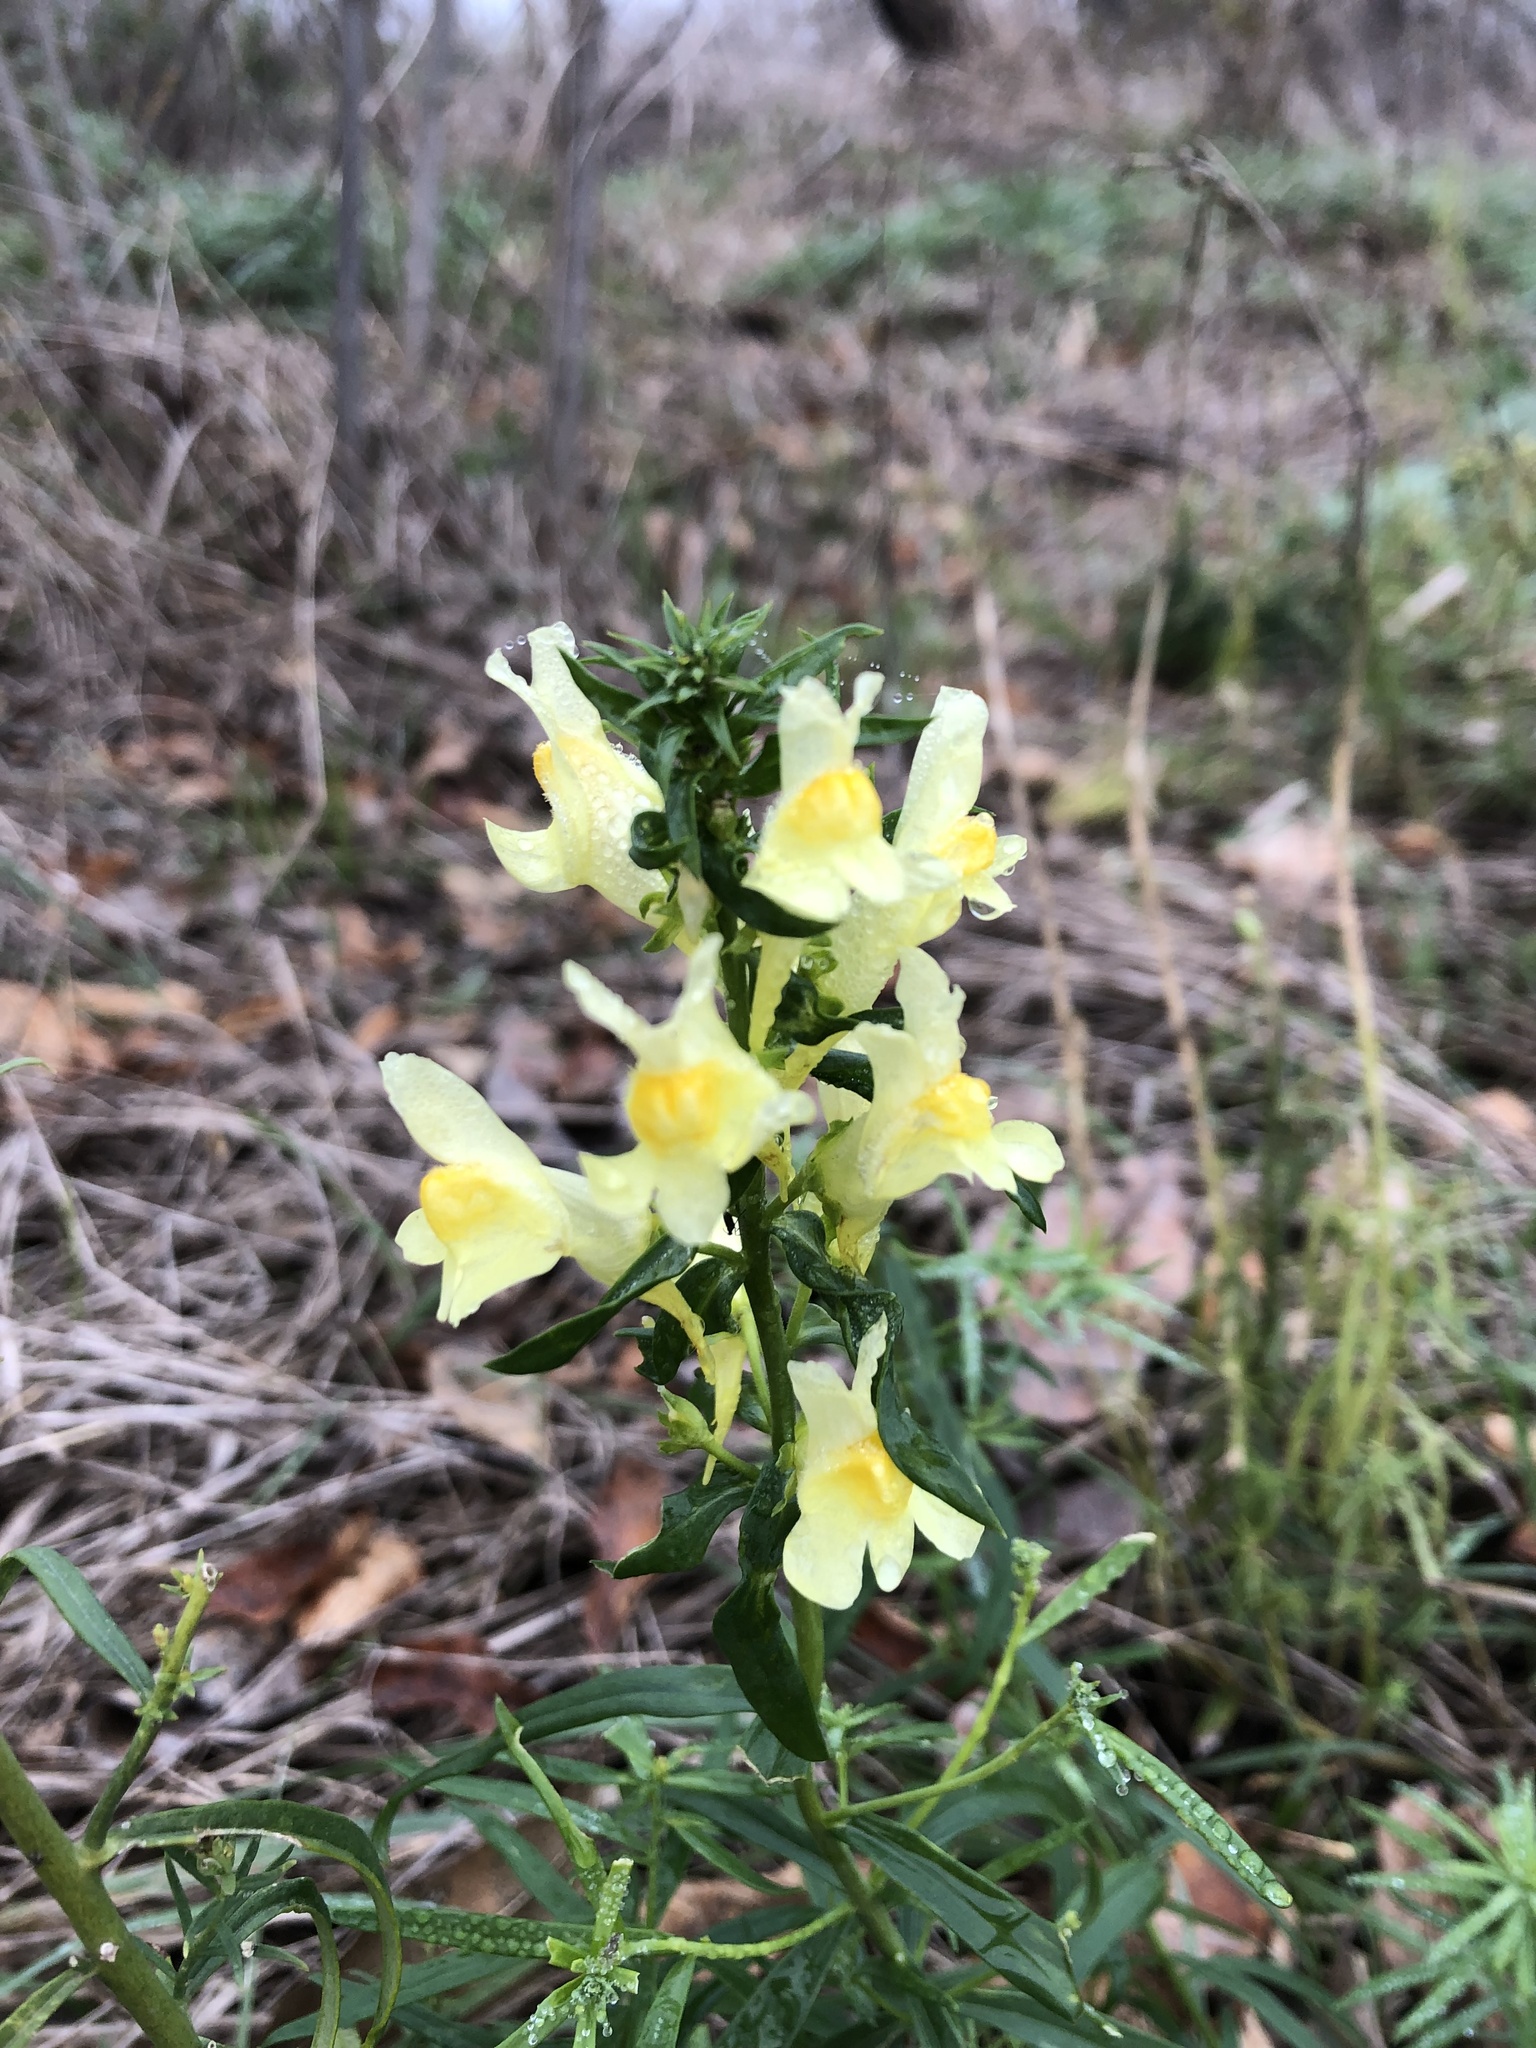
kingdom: Plantae
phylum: Tracheophyta
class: Magnoliopsida
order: Lamiales
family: Plantaginaceae
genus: Linaria
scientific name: Linaria vulgaris
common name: Butter and eggs
